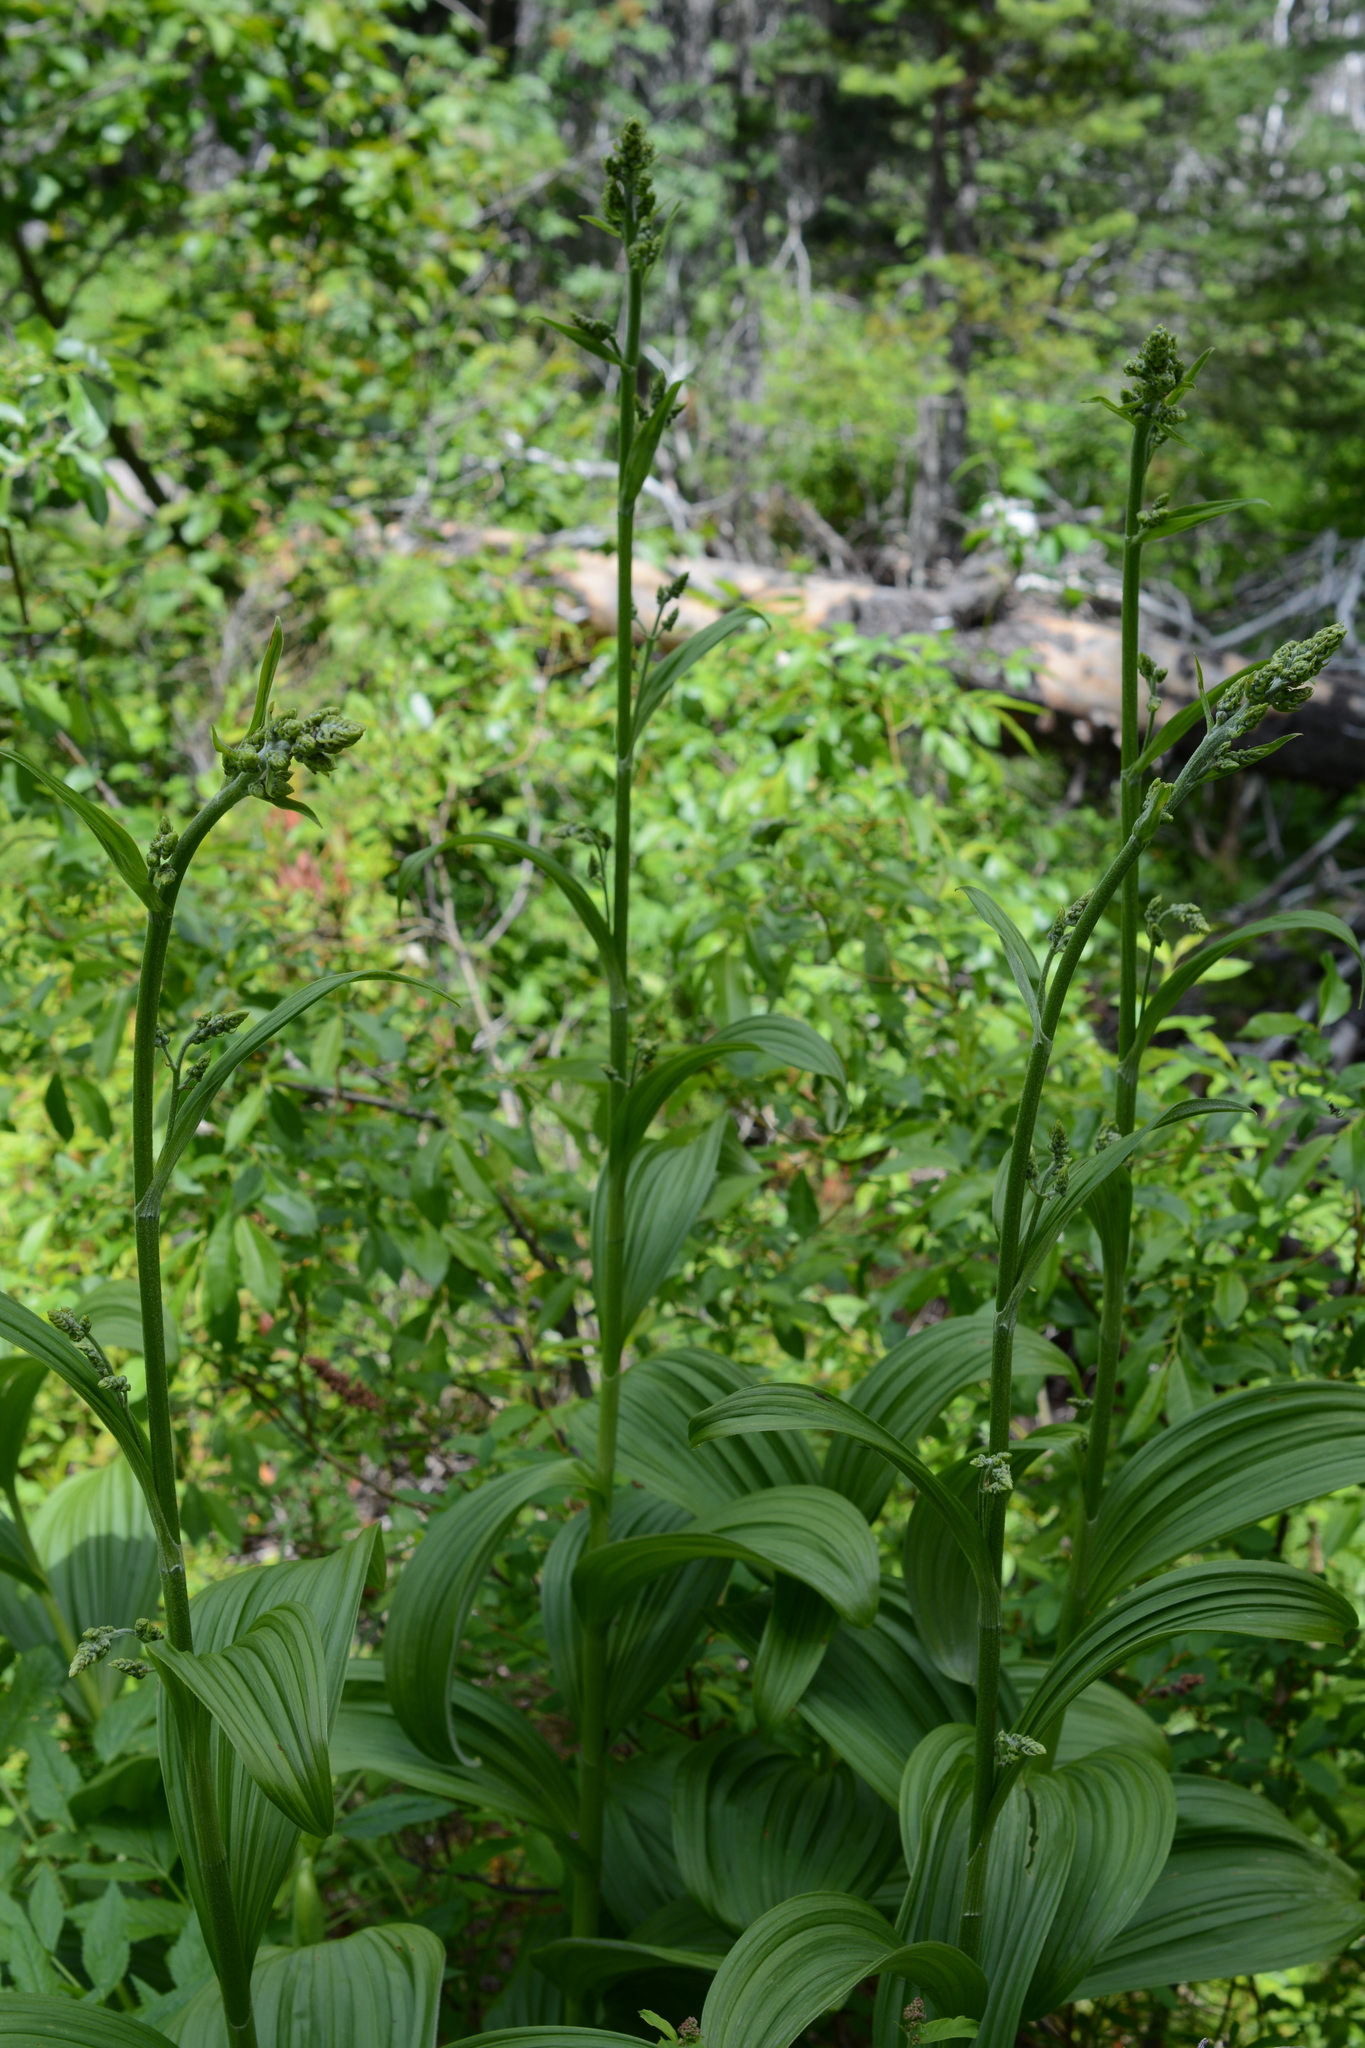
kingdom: Plantae
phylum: Tracheophyta
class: Liliopsida
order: Liliales
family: Melanthiaceae
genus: Veratrum
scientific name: Veratrum viride
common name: American false hellebore
